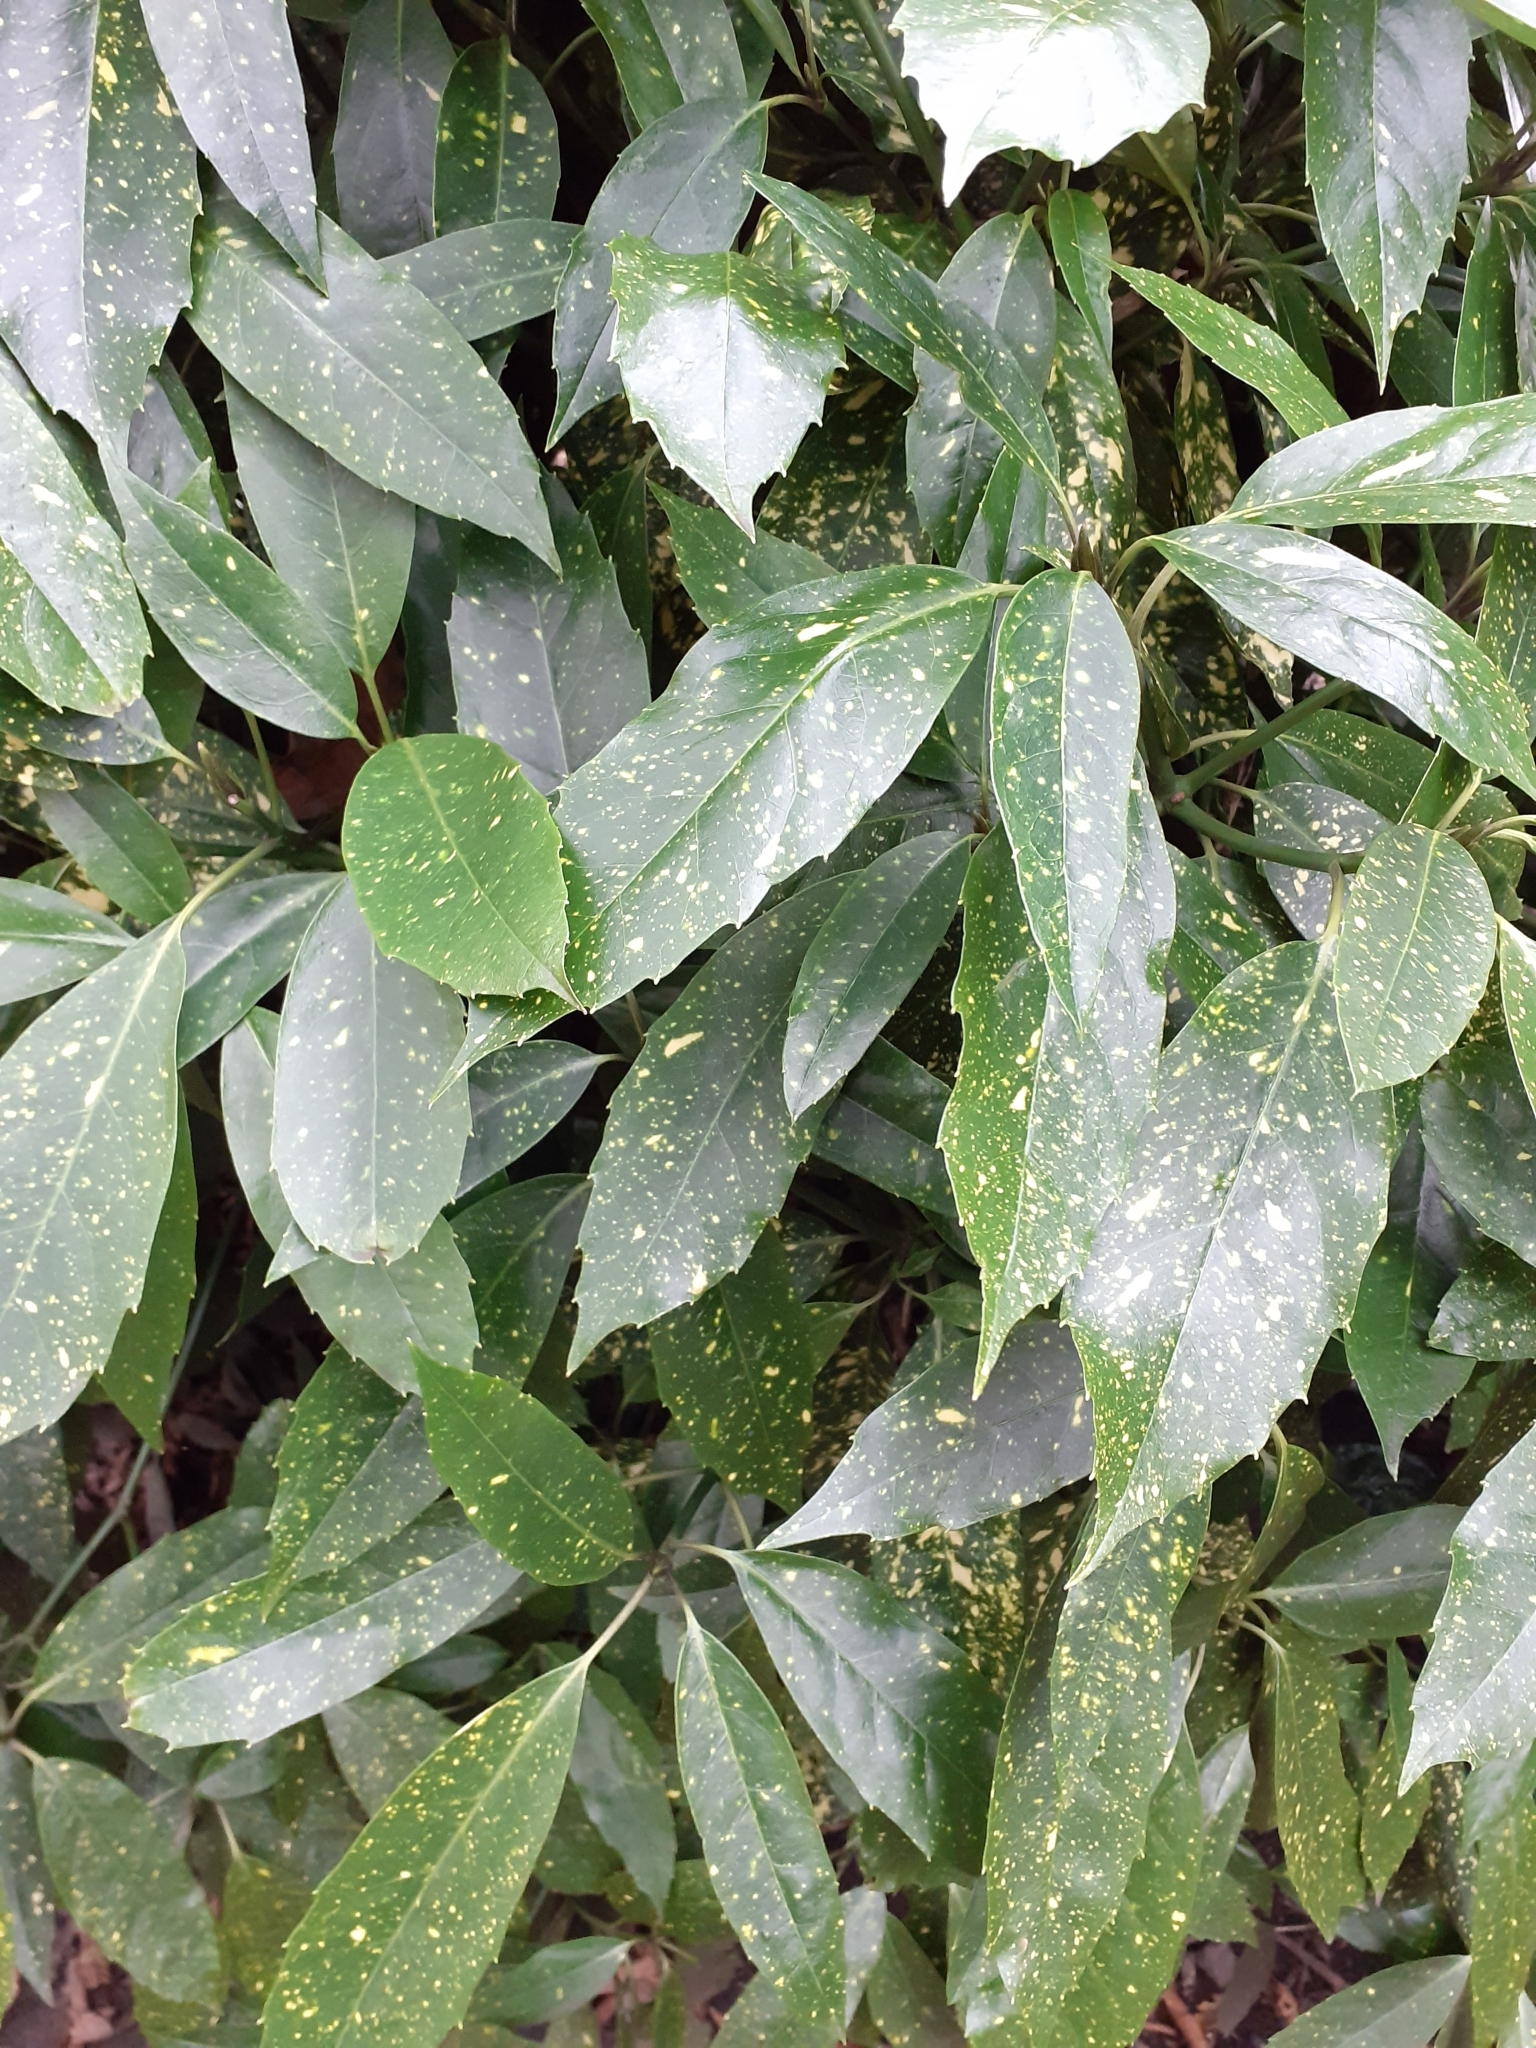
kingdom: Plantae
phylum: Tracheophyta
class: Magnoliopsida
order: Garryales
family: Garryaceae
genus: Aucuba
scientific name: Aucuba japonica
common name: Spotted-laurel
